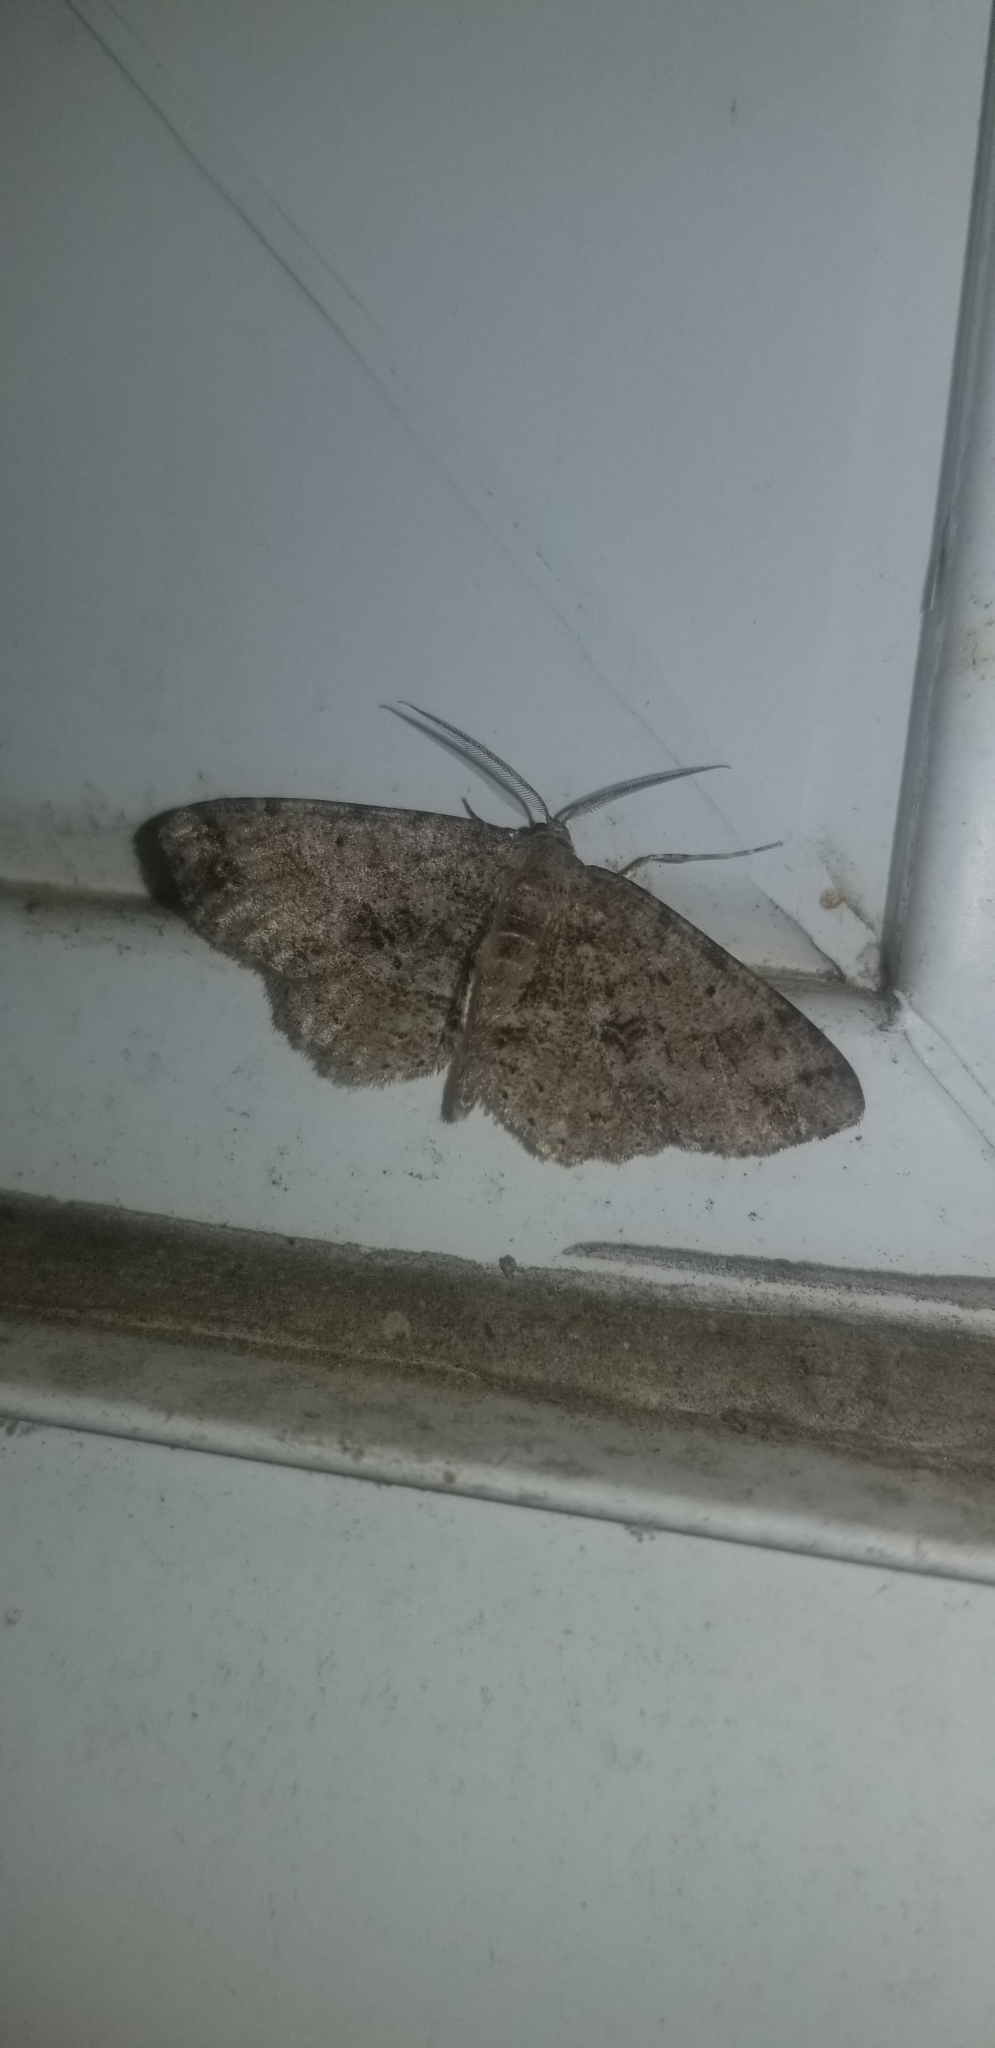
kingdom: Animalia
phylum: Arthropoda
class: Insecta
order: Lepidoptera
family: Geometridae
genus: Melanolophia
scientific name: Melanolophia canadaria
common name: Canadian melanolophia
